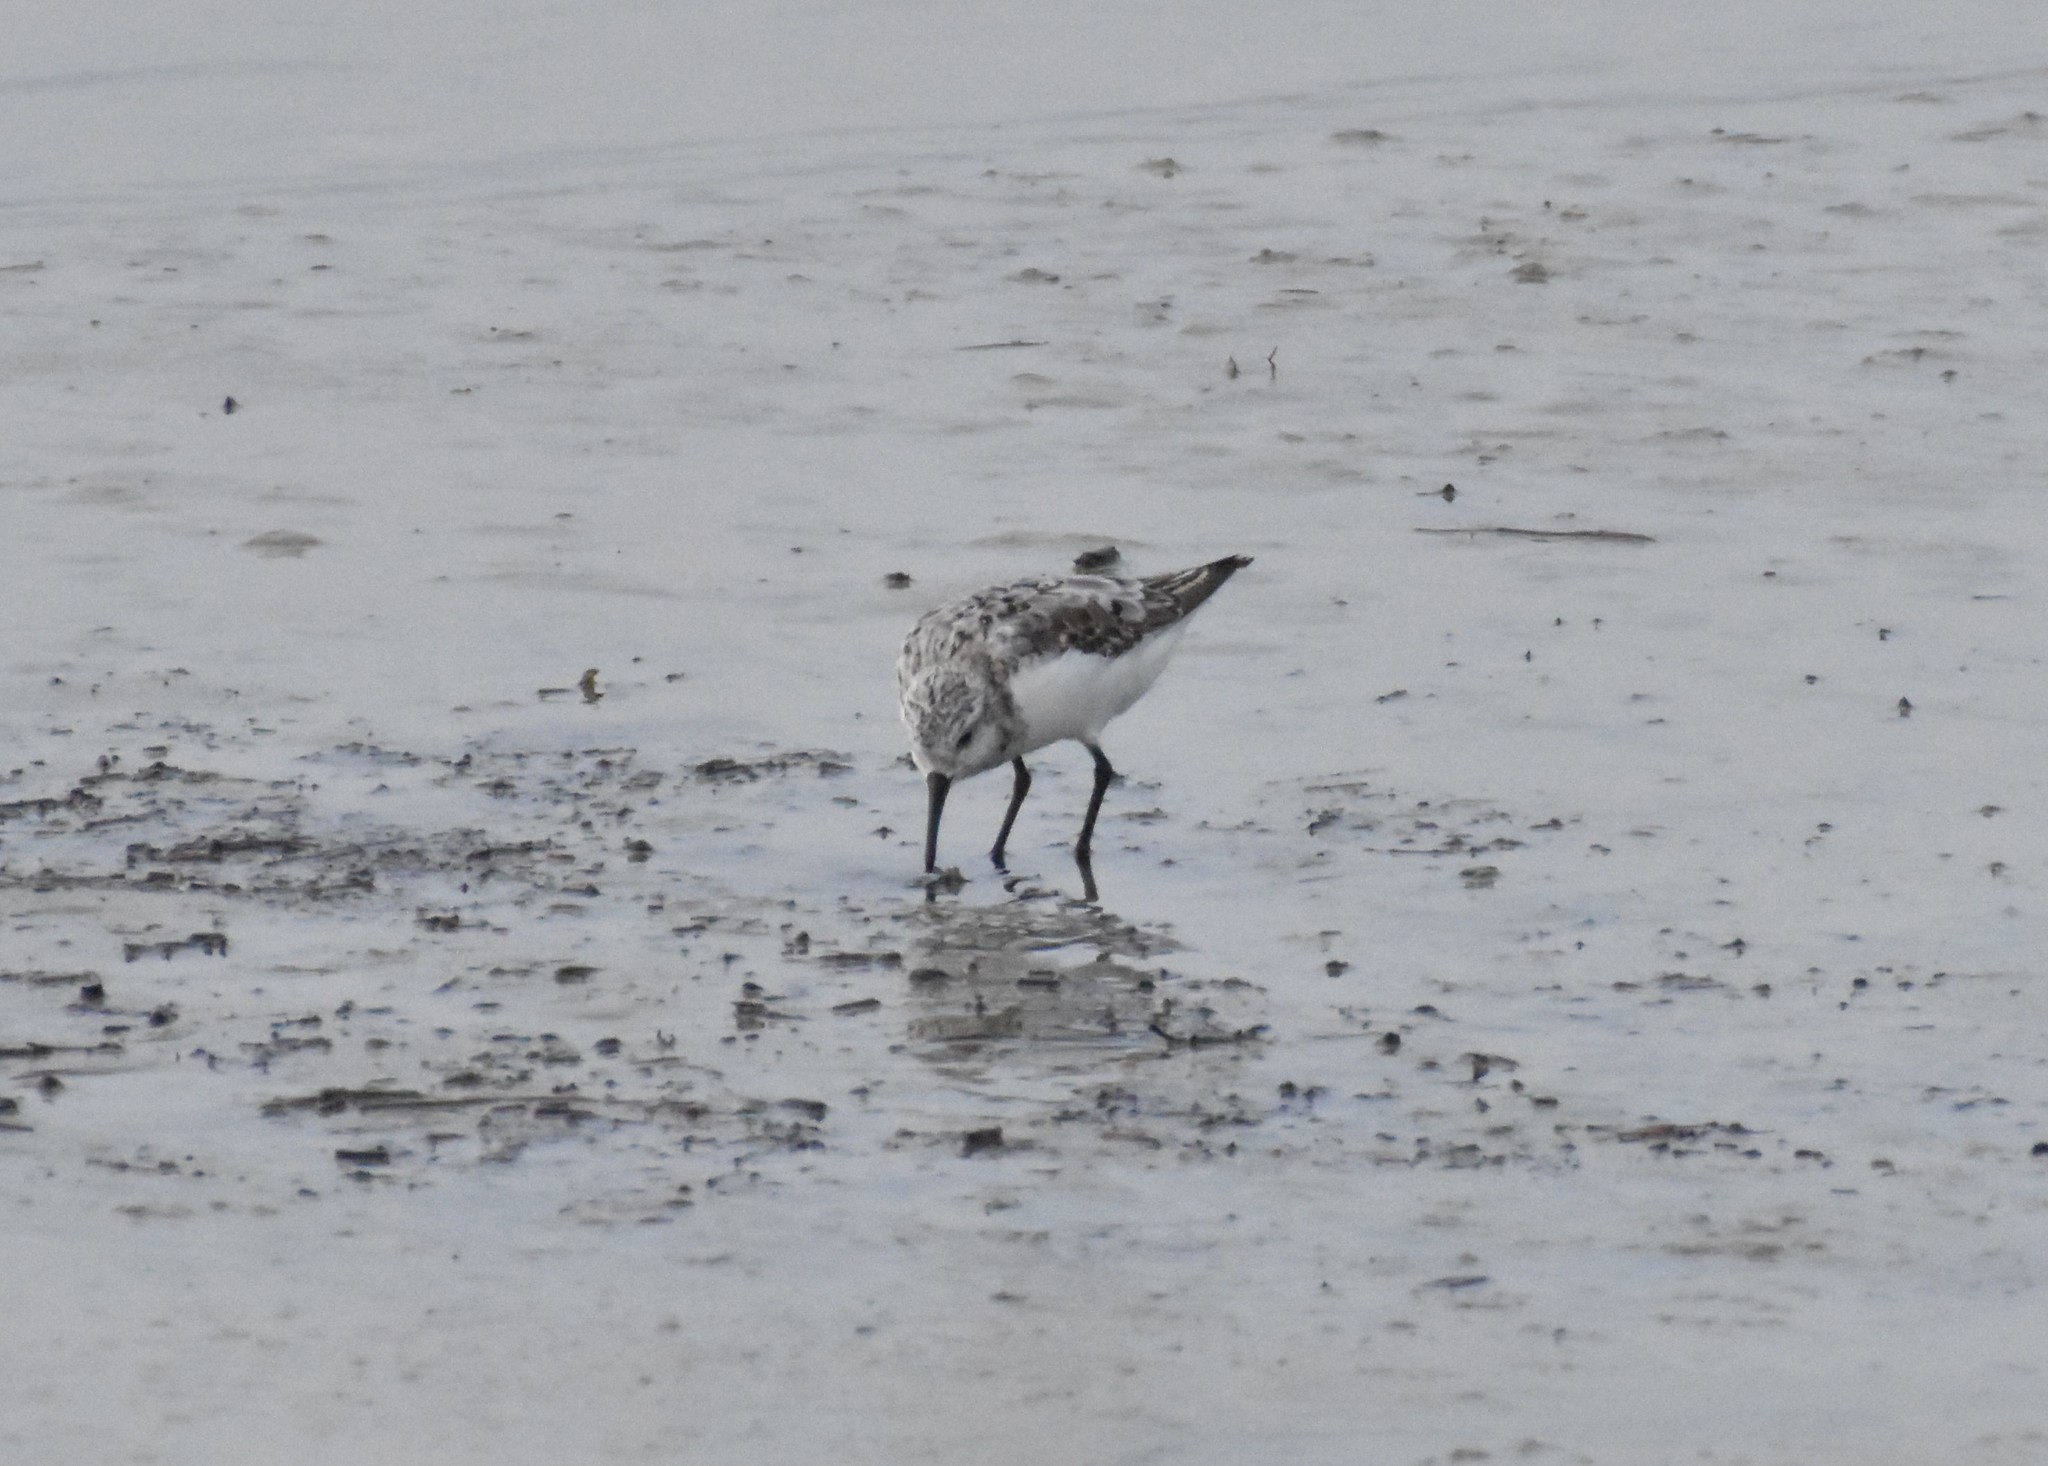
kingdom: Animalia
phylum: Chordata
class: Aves
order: Charadriiformes
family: Scolopacidae
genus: Calidris
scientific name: Calidris alba
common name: Sanderling
